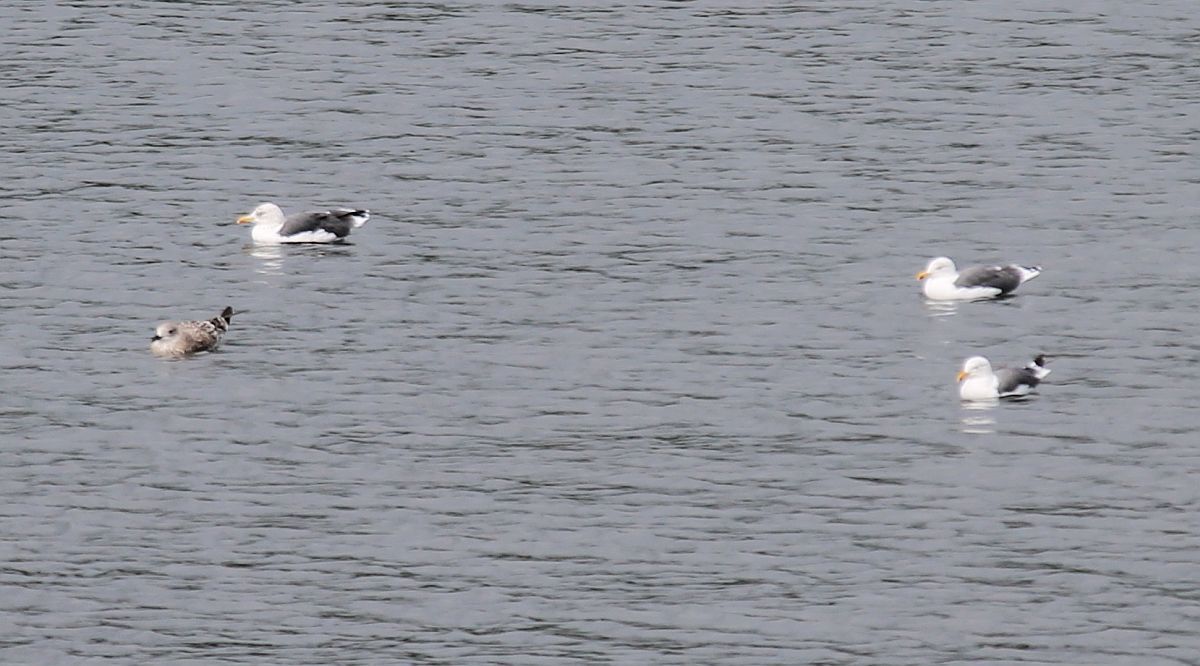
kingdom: Animalia
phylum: Chordata
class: Aves
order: Charadriiformes
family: Laridae
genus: Larus
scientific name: Larus fuscus
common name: Lesser black-backed gull
